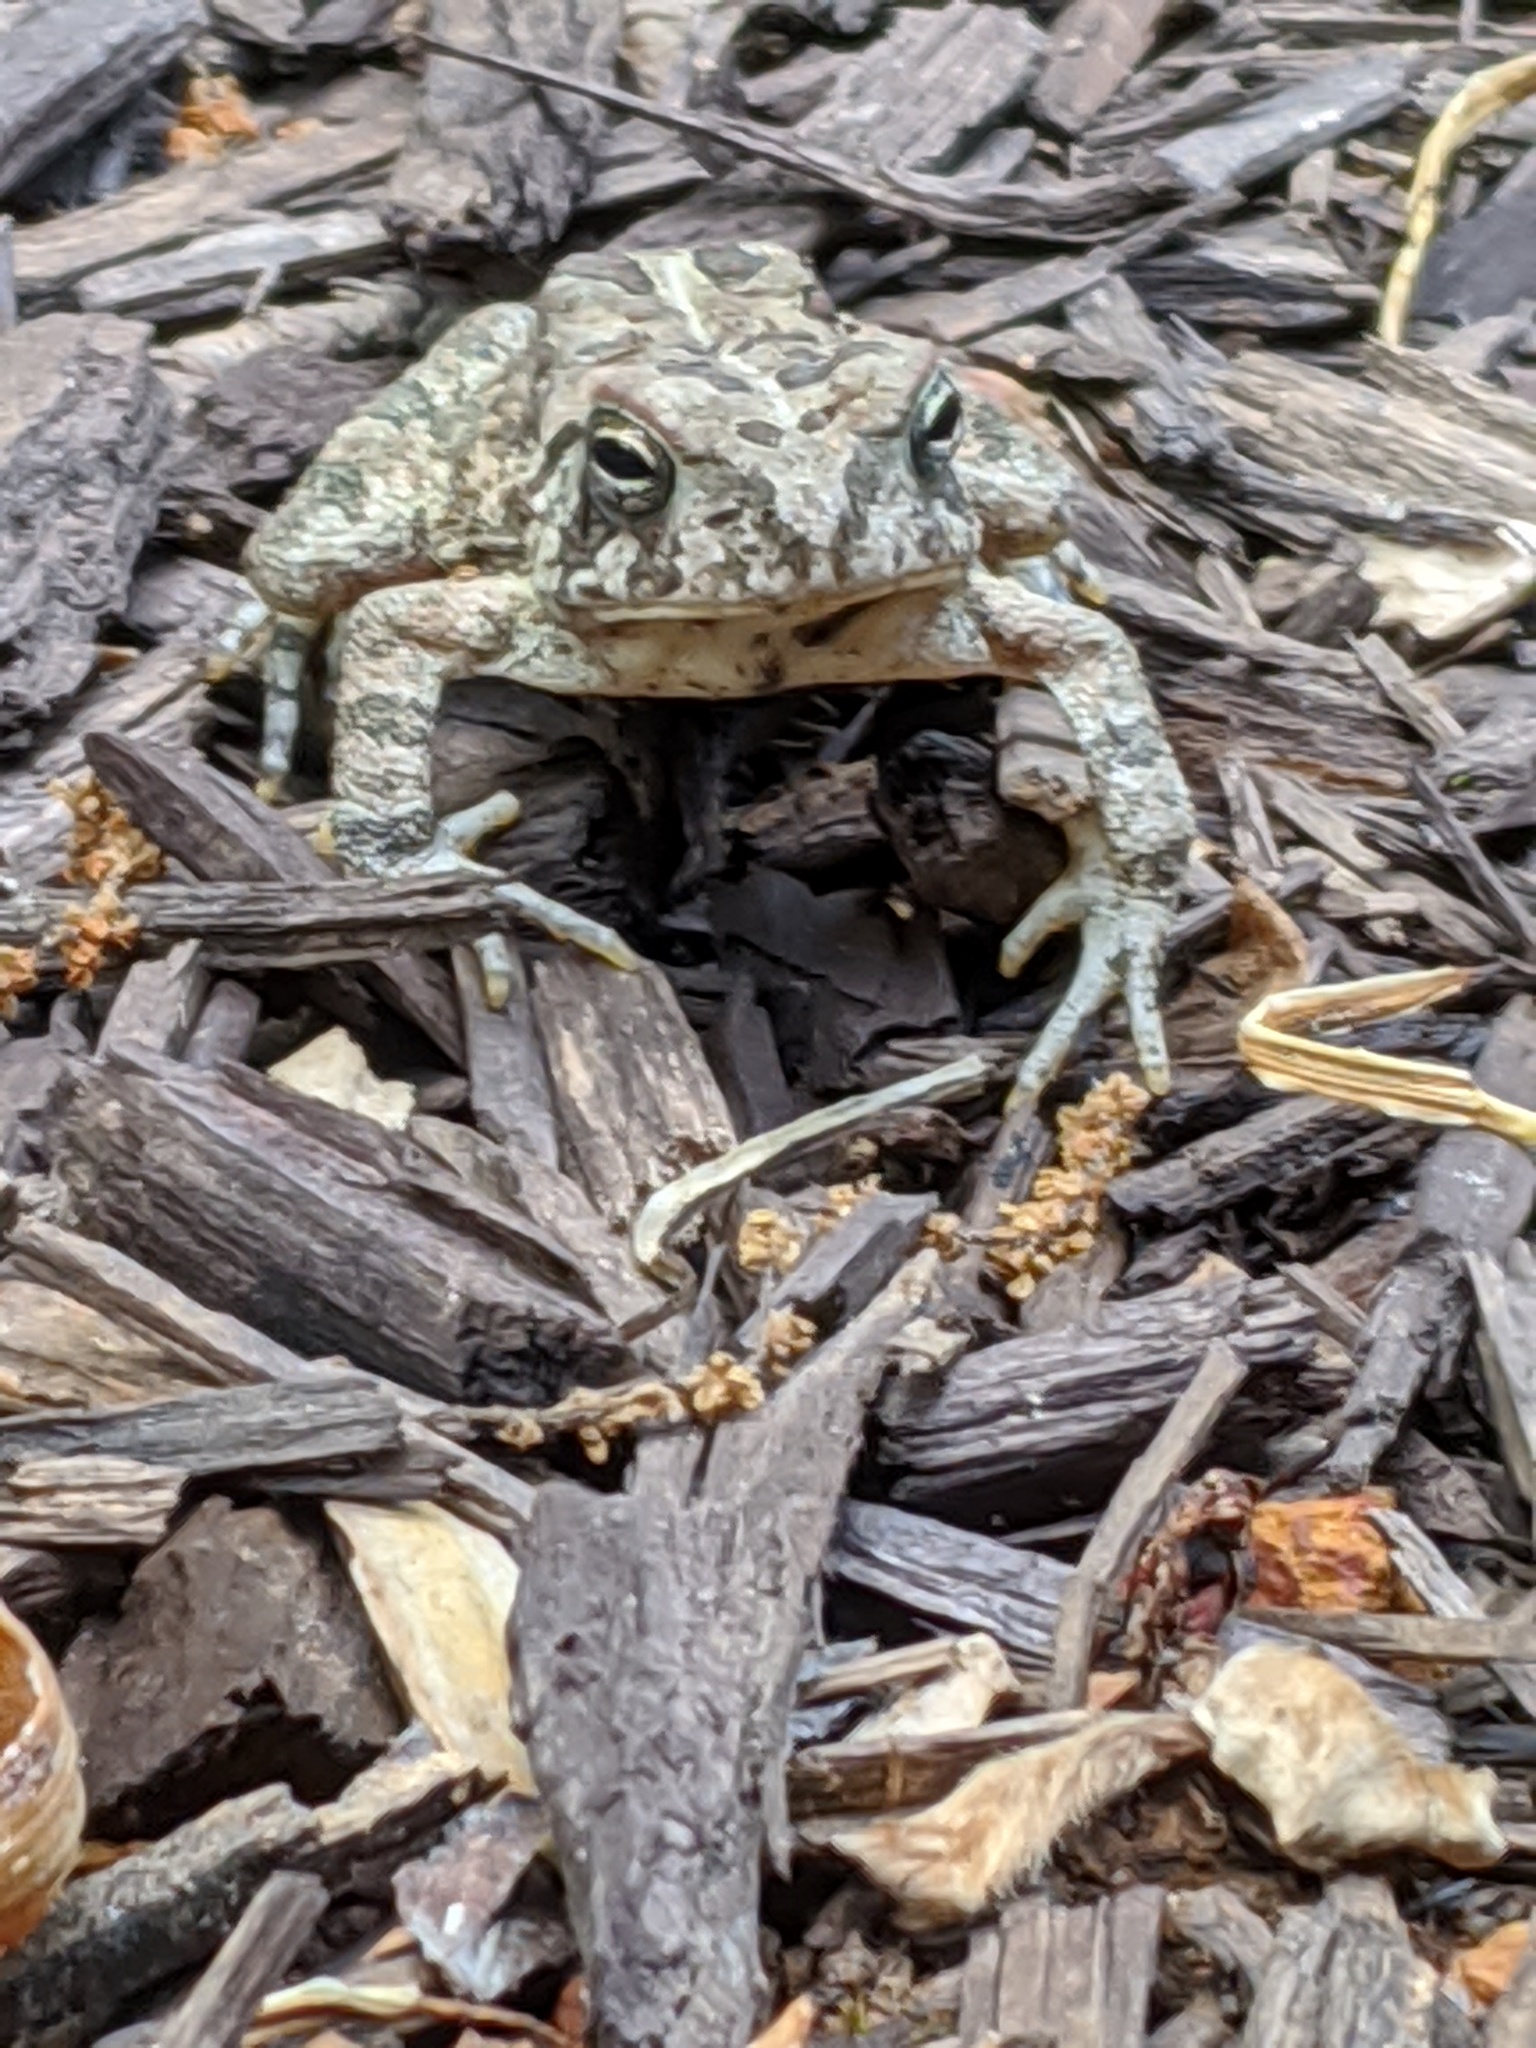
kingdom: Animalia
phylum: Chordata
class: Amphibia
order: Anura
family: Bufonidae
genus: Anaxyrus
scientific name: Anaxyrus fowleri
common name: Fowler's toad
